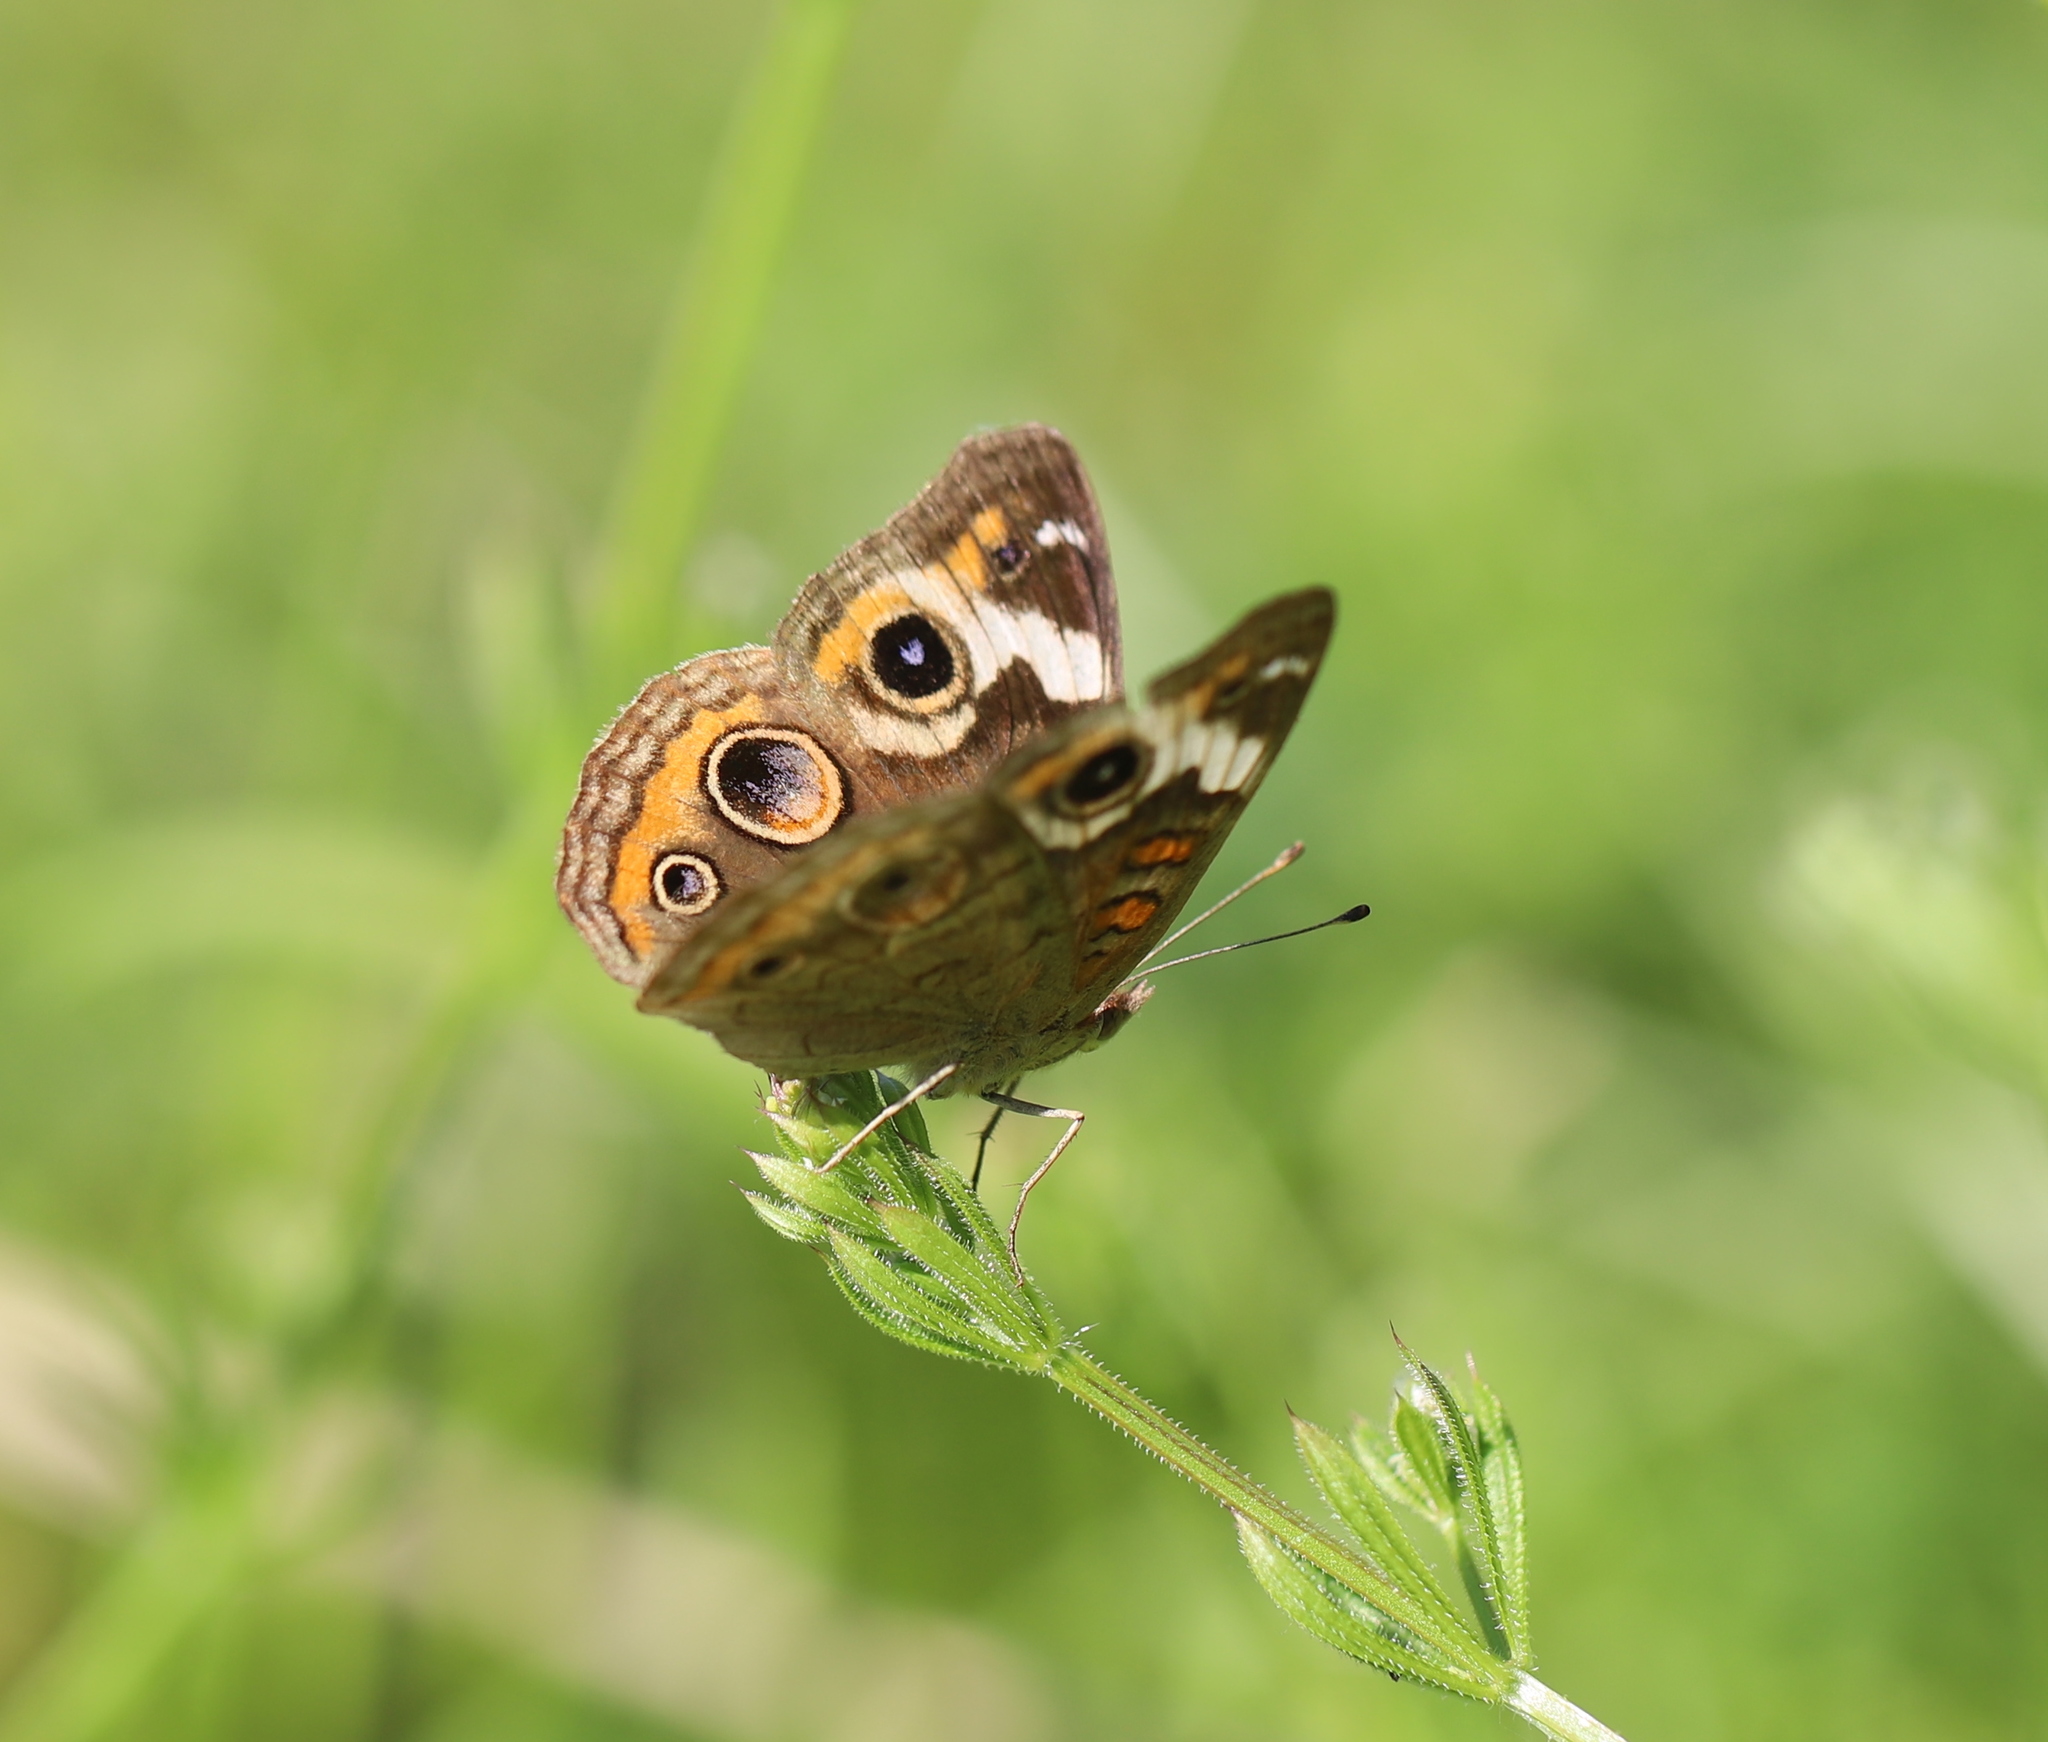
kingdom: Animalia
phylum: Arthropoda
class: Insecta
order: Lepidoptera
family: Nymphalidae
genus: Junonia
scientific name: Junonia coenia
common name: Common buckeye
